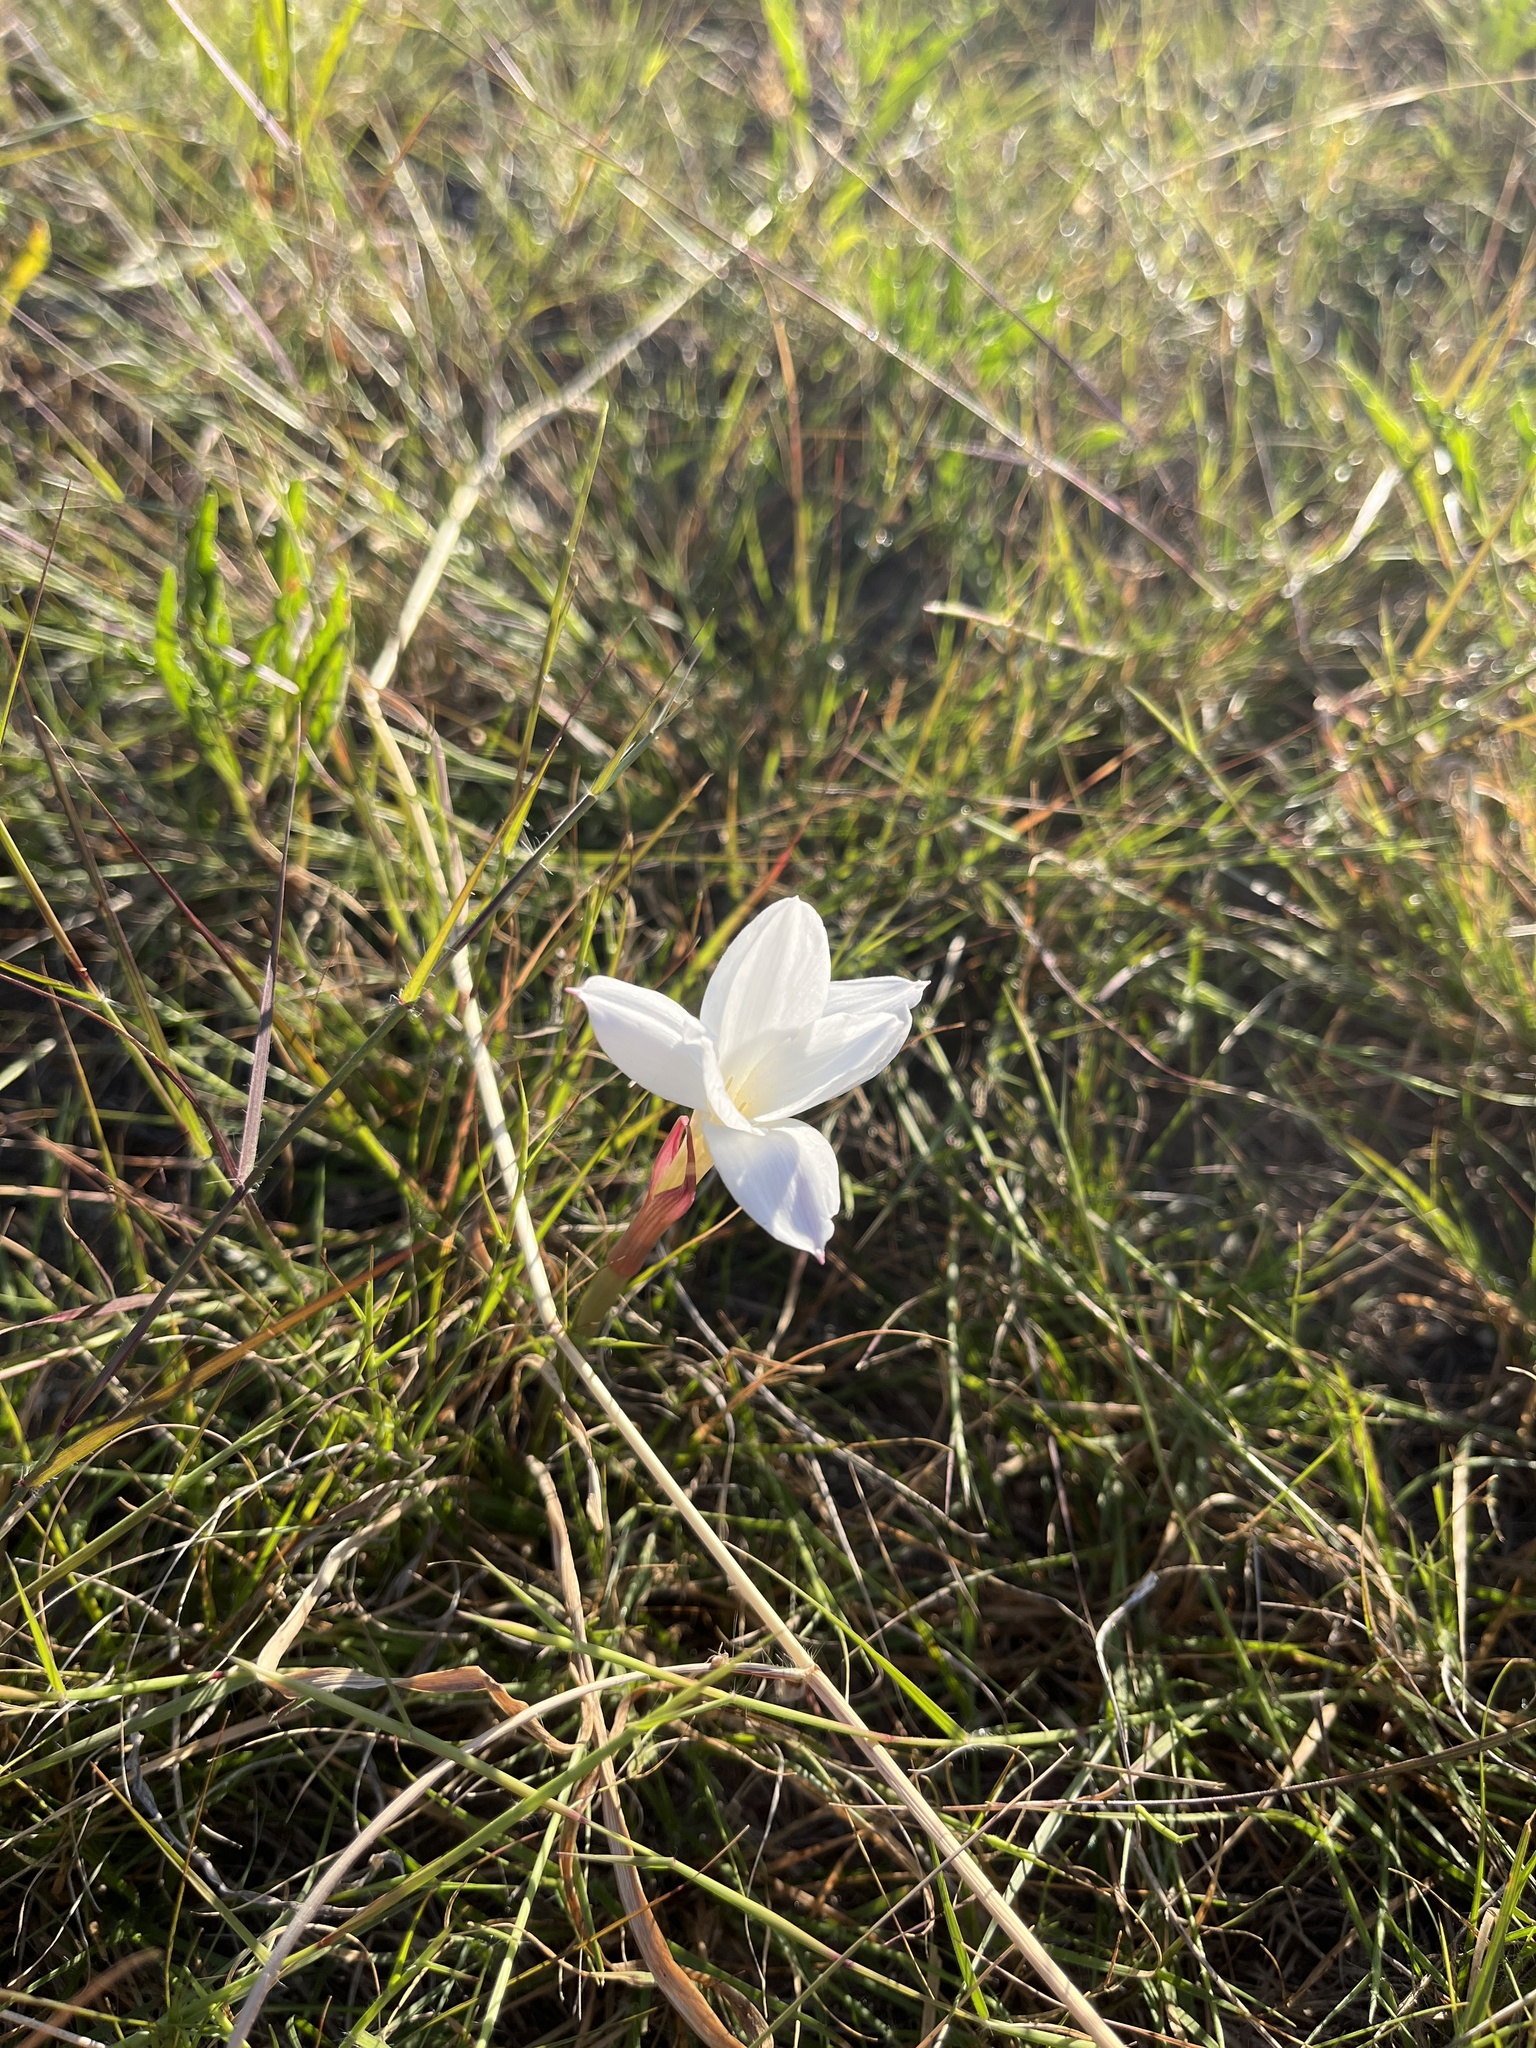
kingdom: Plantae
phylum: Tracheophyta
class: Liliopsida
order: Asparagales
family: Amaryllidaceae
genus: Zephyranthes
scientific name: Zephyranthes drummondii
